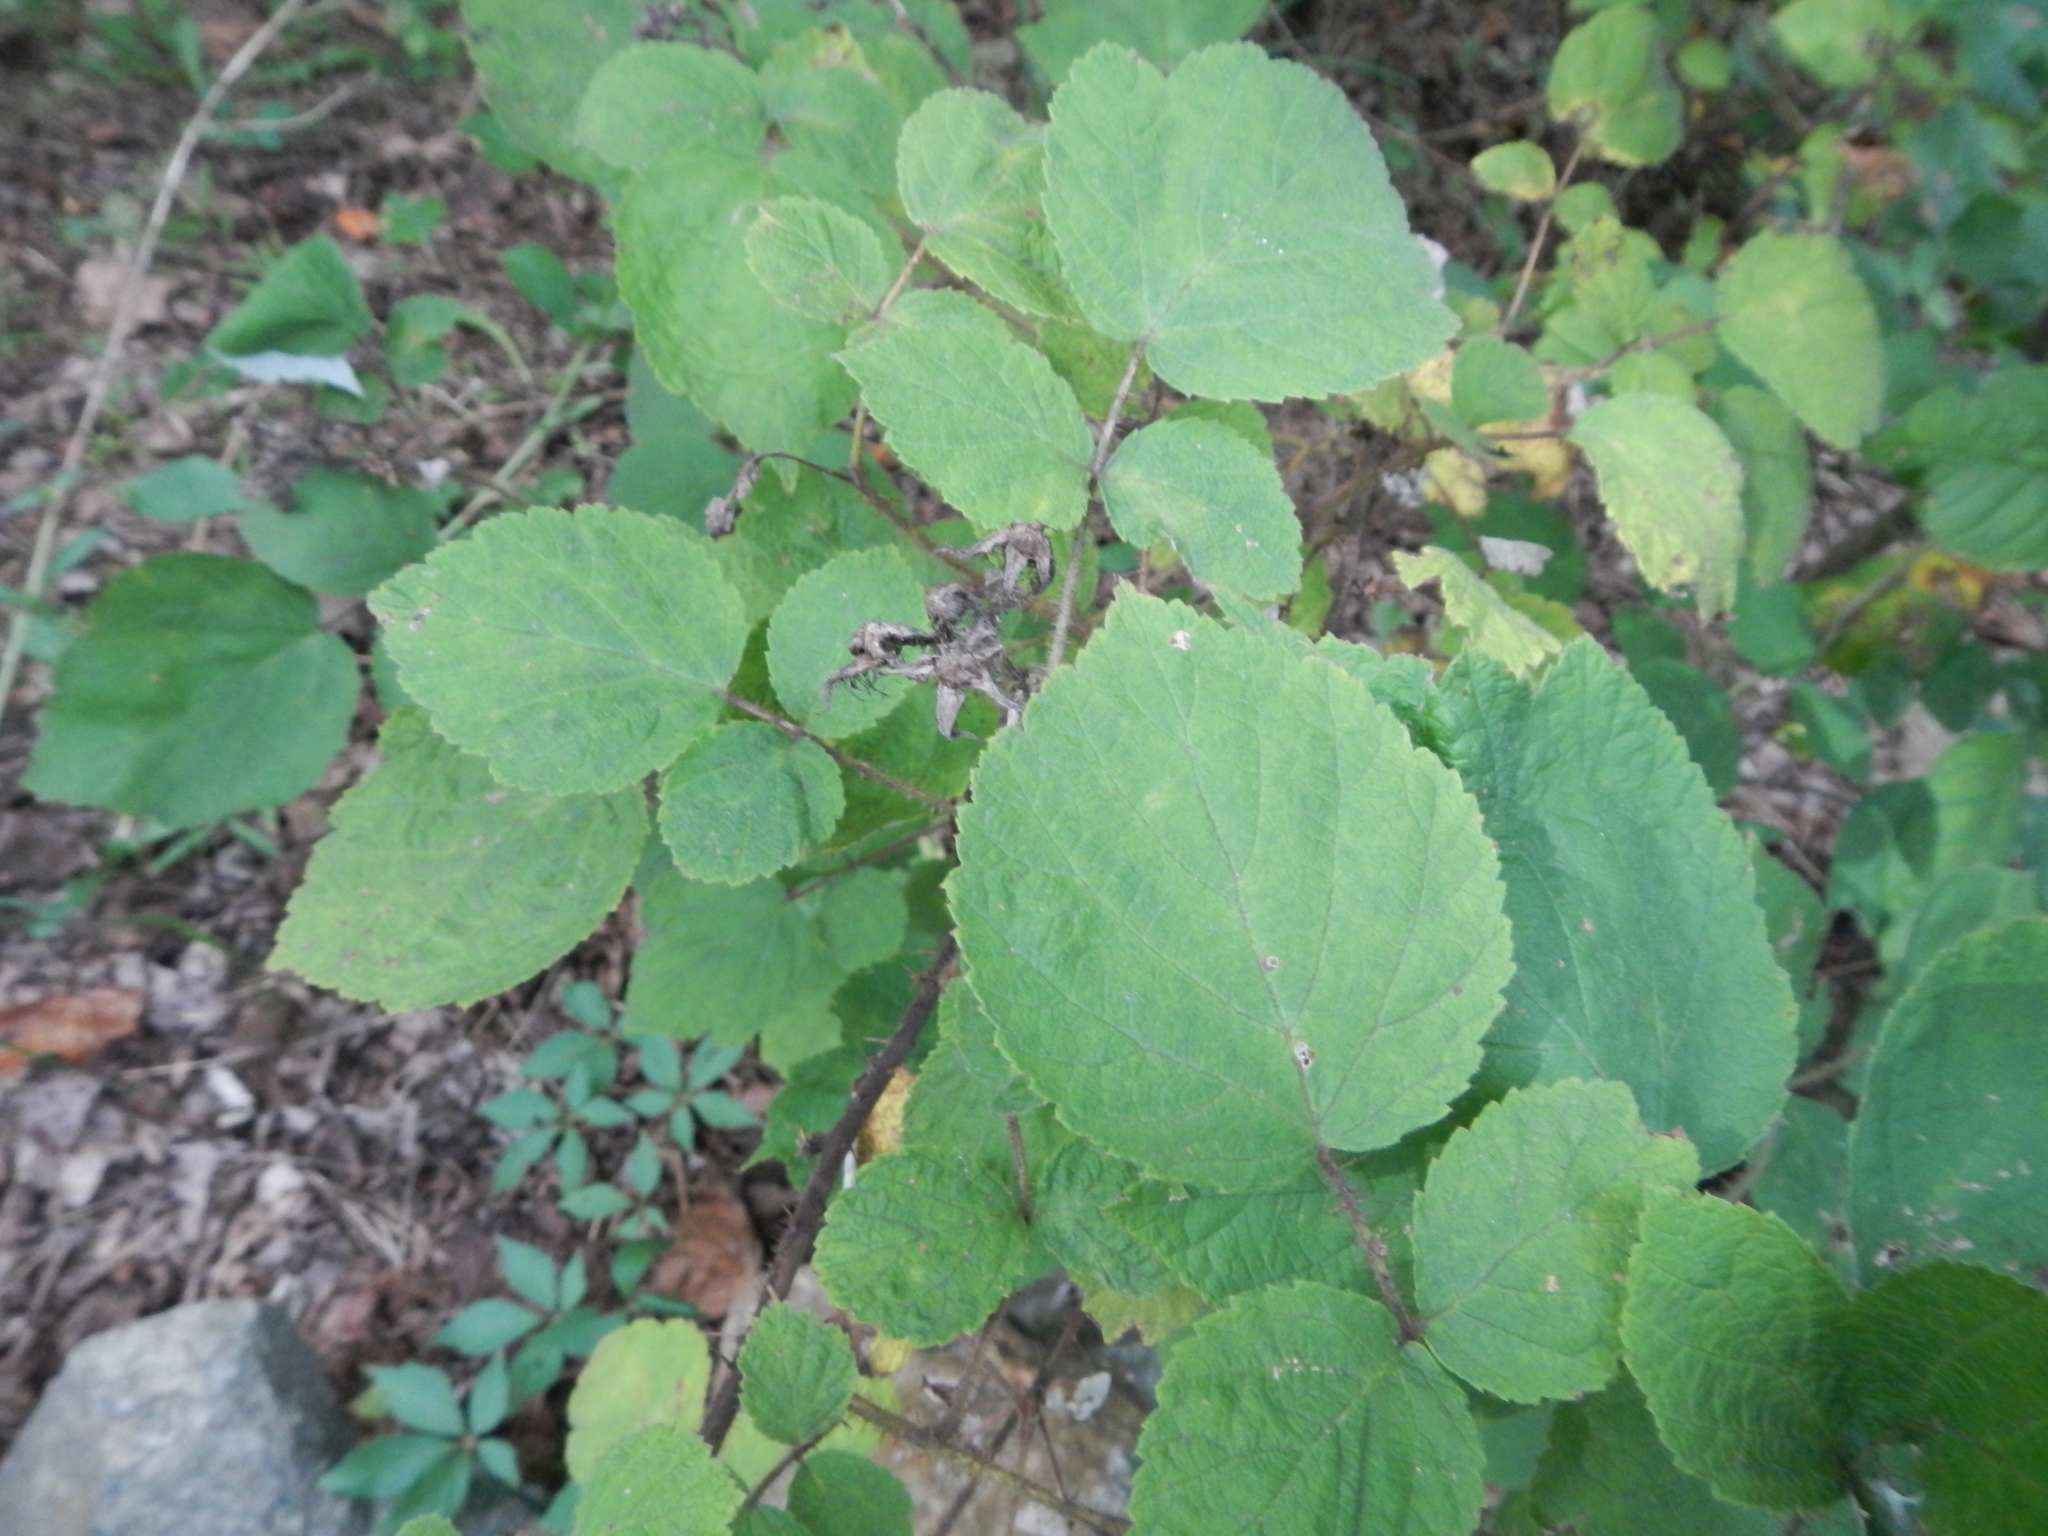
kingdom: Plantae
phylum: Tracheophyta
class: Magnoliopsida
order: Rosales
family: Rosaceae
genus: Rubus
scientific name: Rubus phoenicolasius
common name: Japanese wineberry
